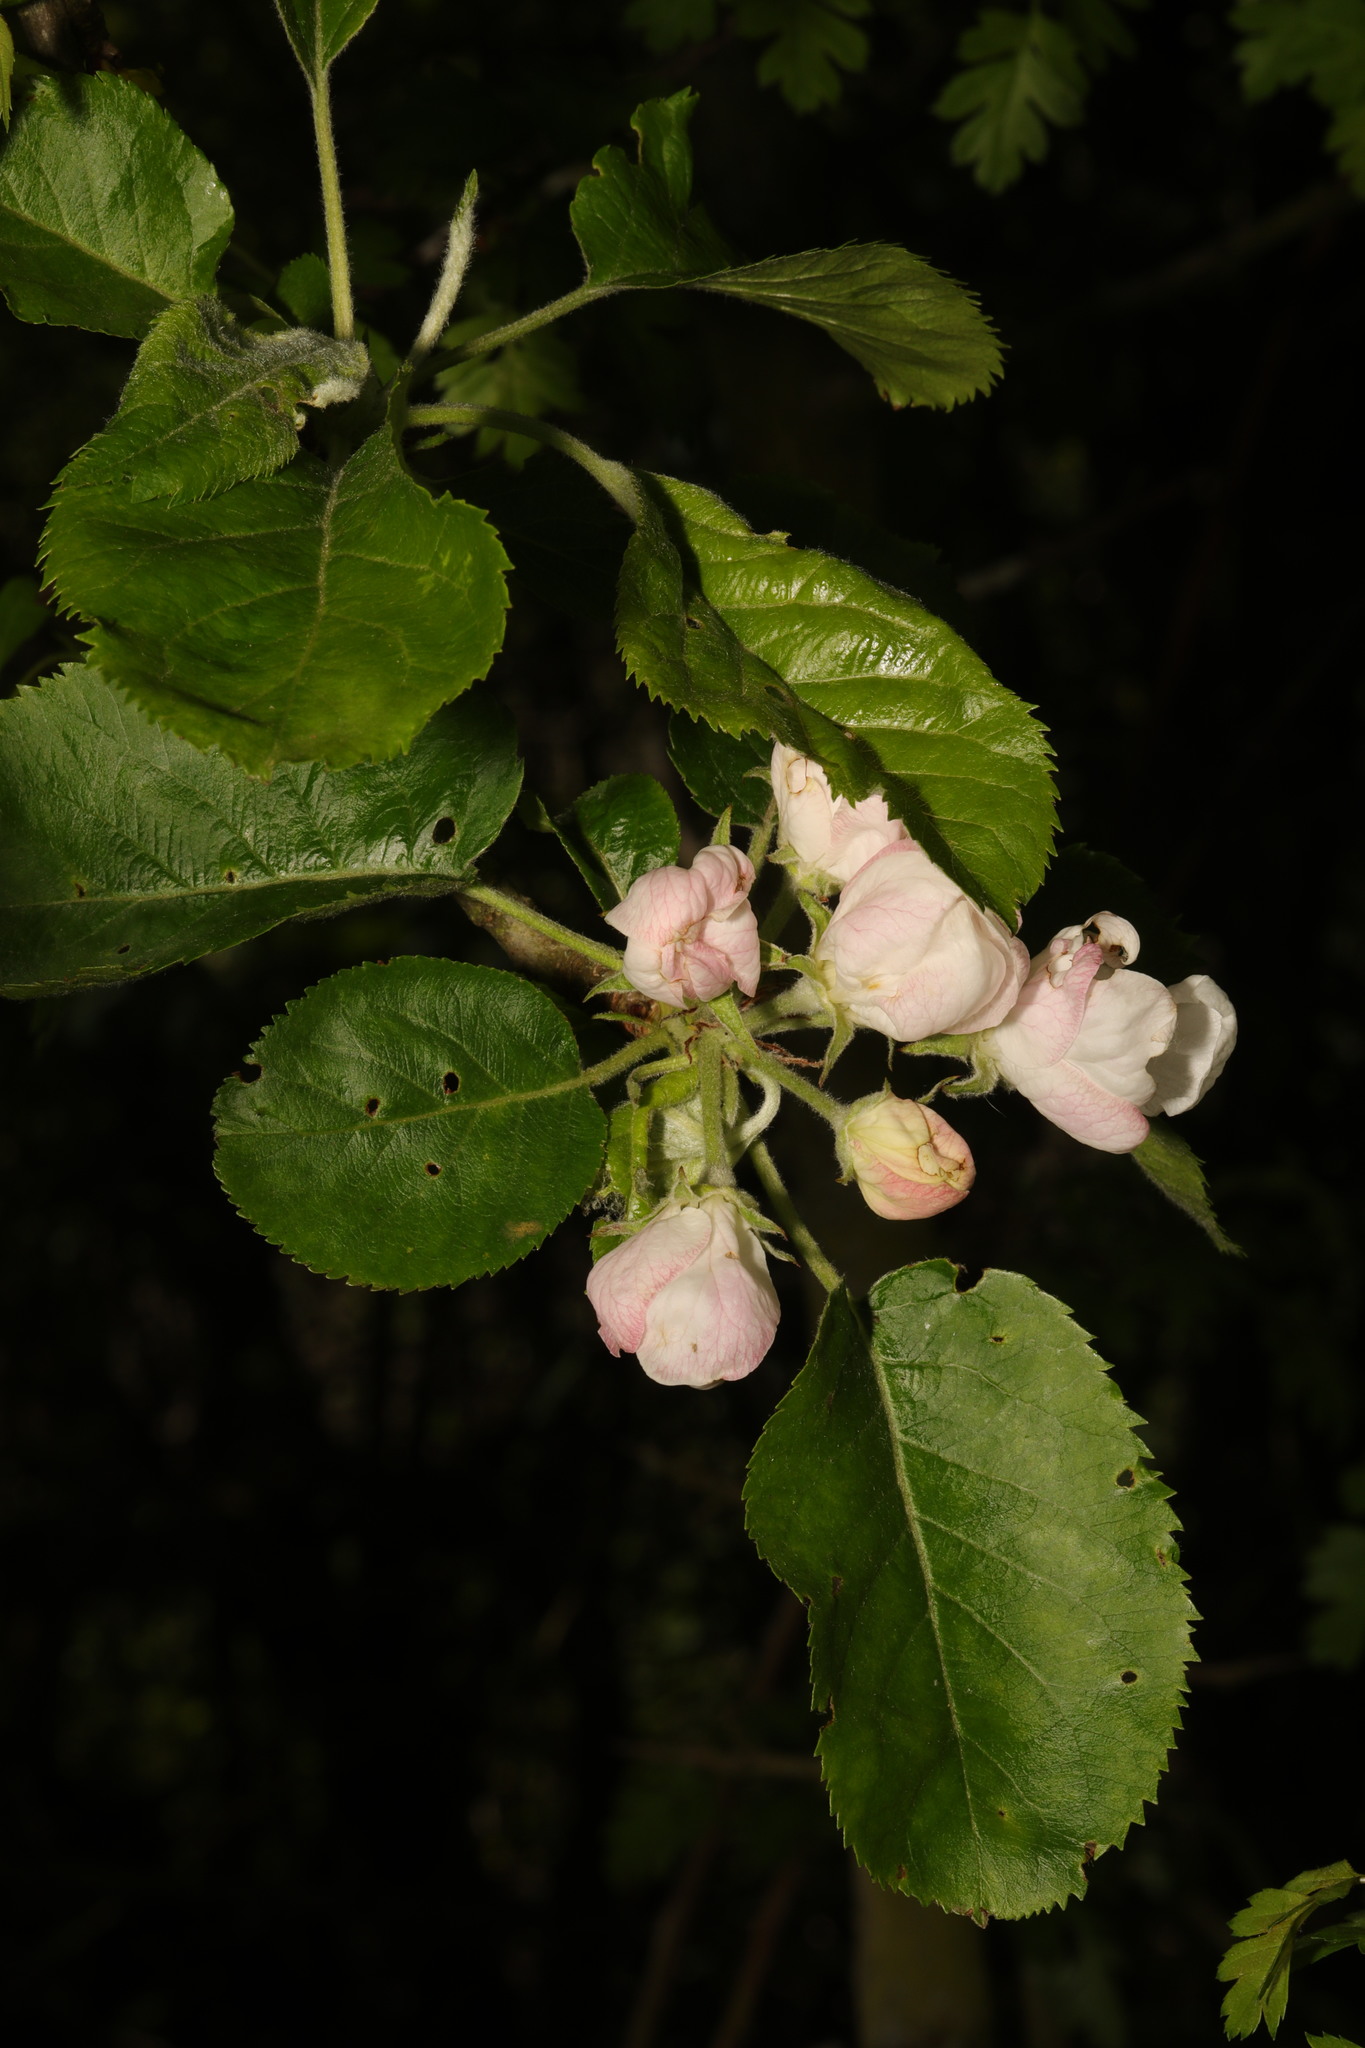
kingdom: Plantae
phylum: Tracheophyta
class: Magnoliopsida
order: Rosales
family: Rosaceae
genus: Malus
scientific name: Malus domestica
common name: Apple
